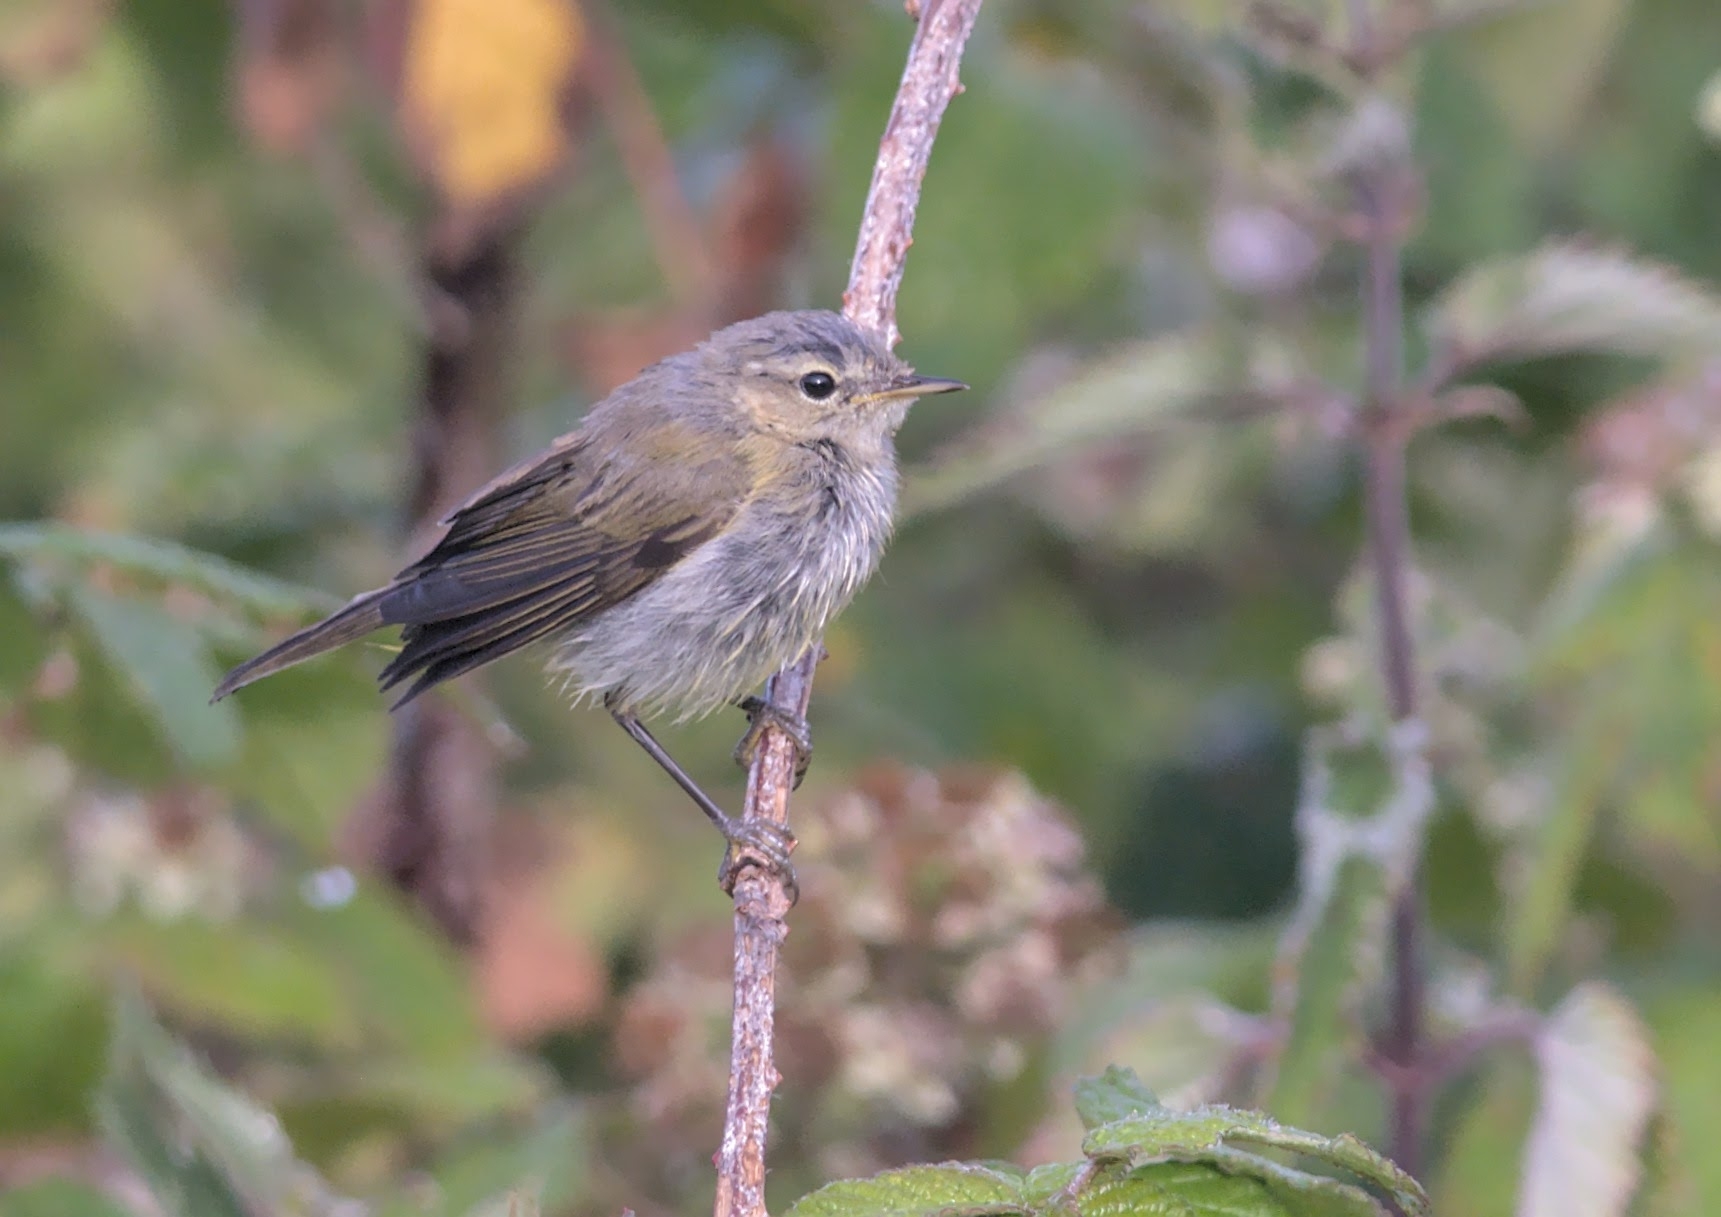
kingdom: Animalia
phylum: Chordata
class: Aves
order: Passeriformes
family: Phylloscopidae
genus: Phylloscopus
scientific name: Phylloscopus collybita
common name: Common chiffchaff
